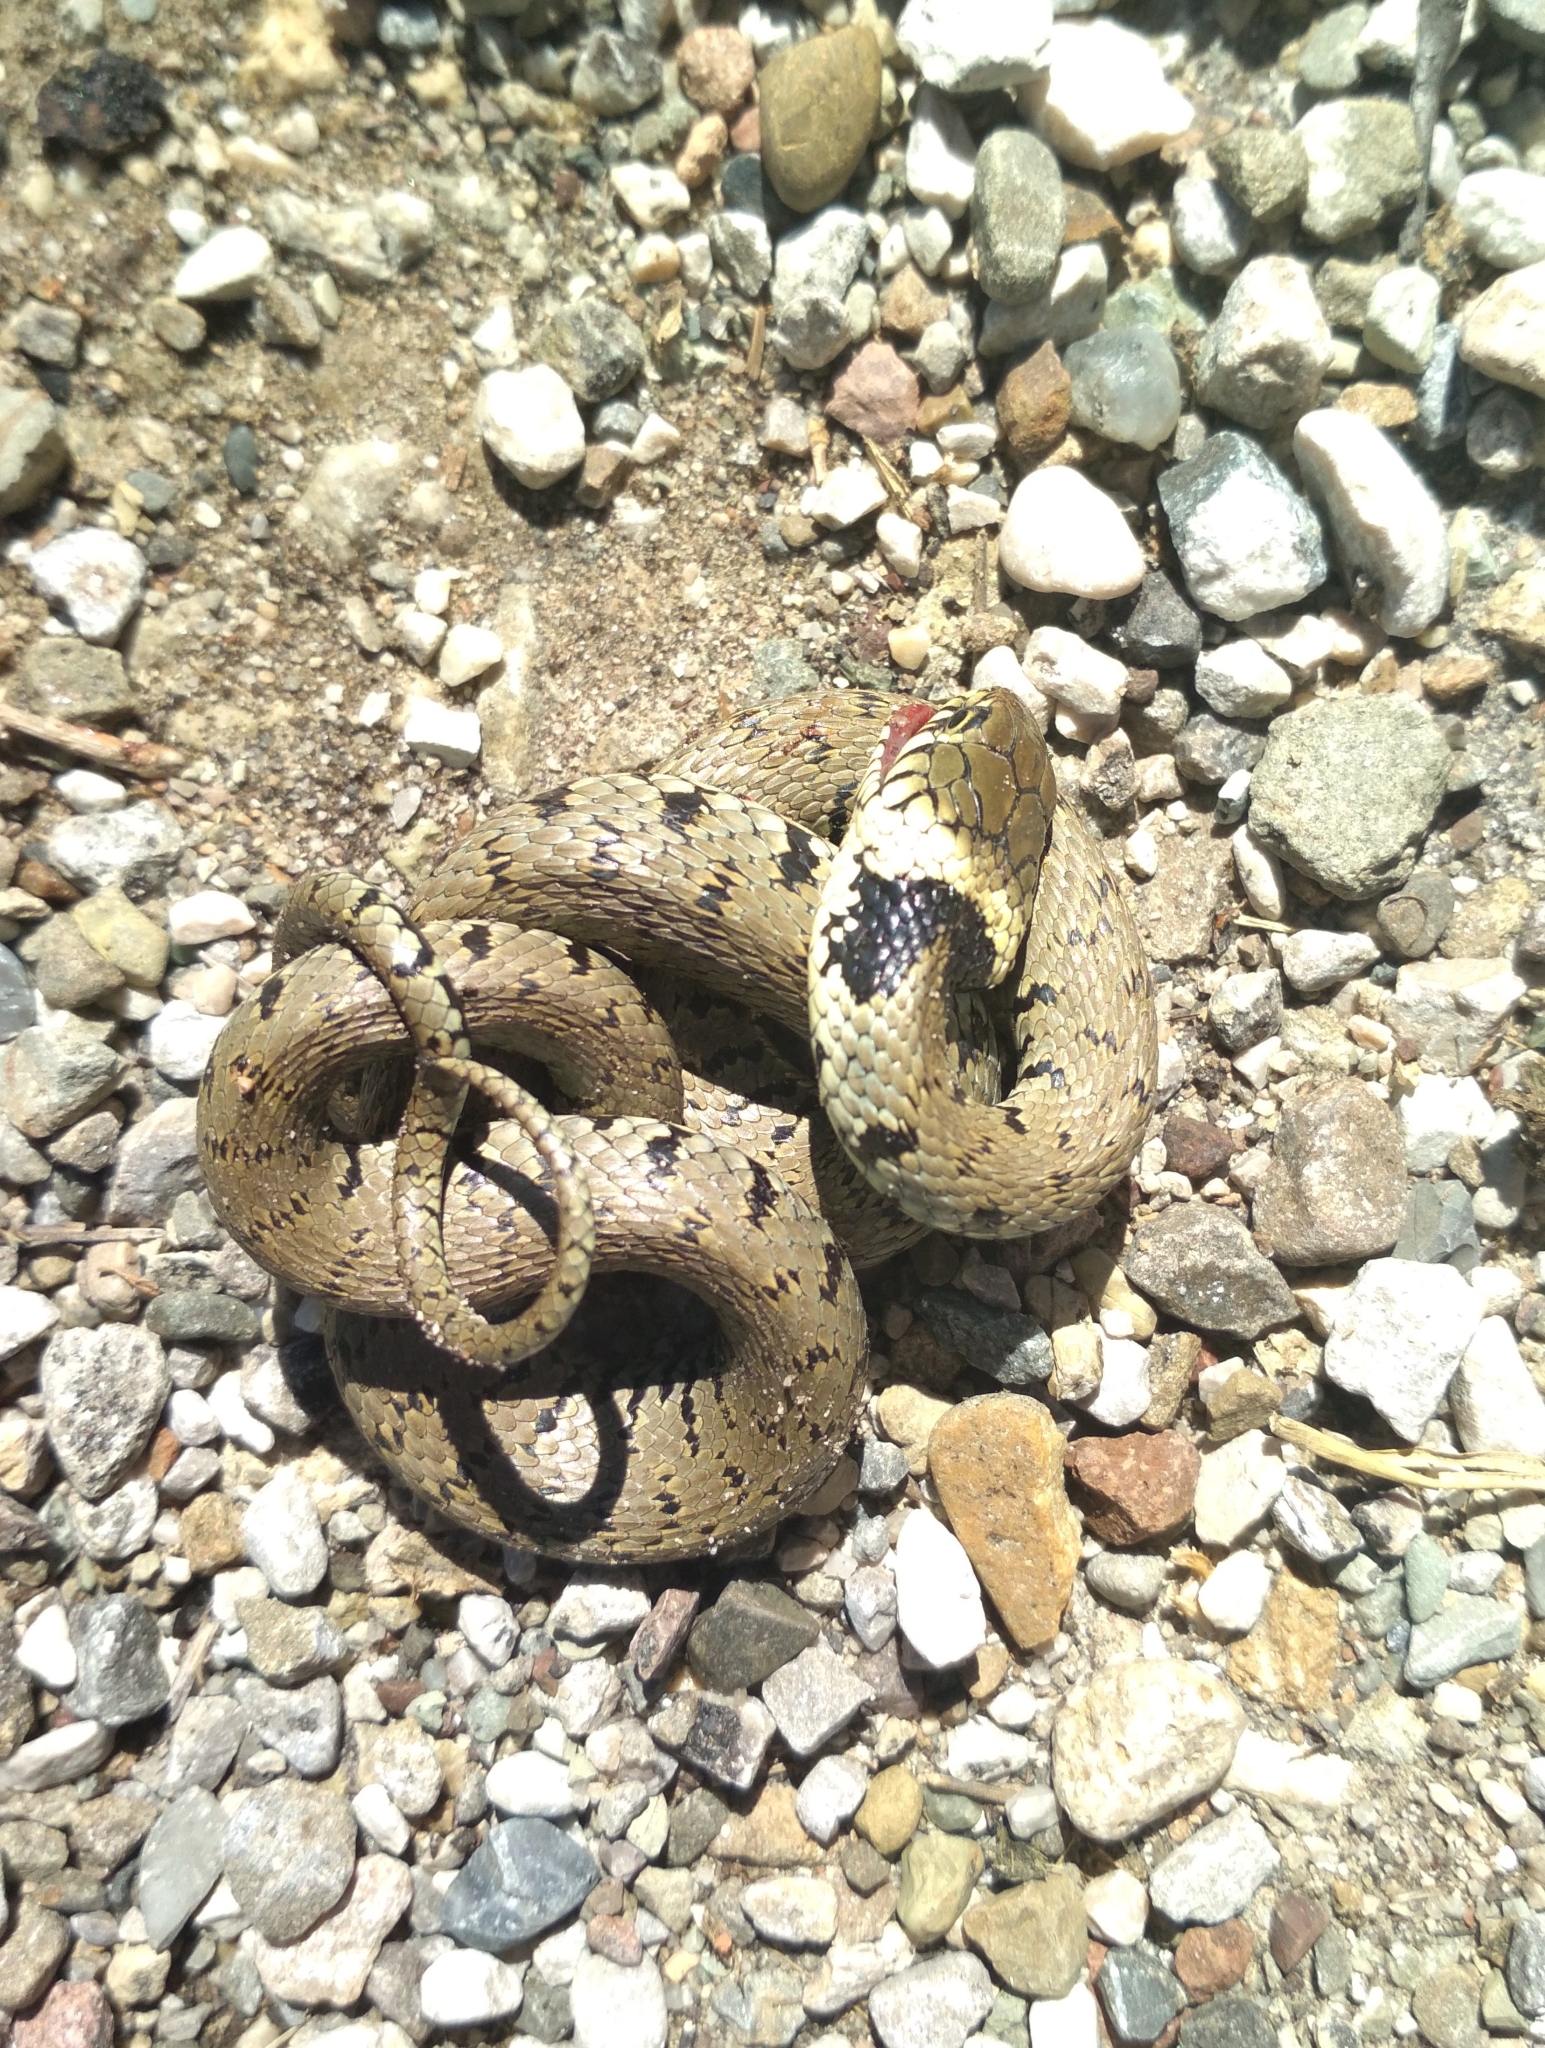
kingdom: Animalia
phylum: Chordata
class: Squamata
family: Colubridae
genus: Natrix
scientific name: Natrix helvetica
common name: Banded grass snake
